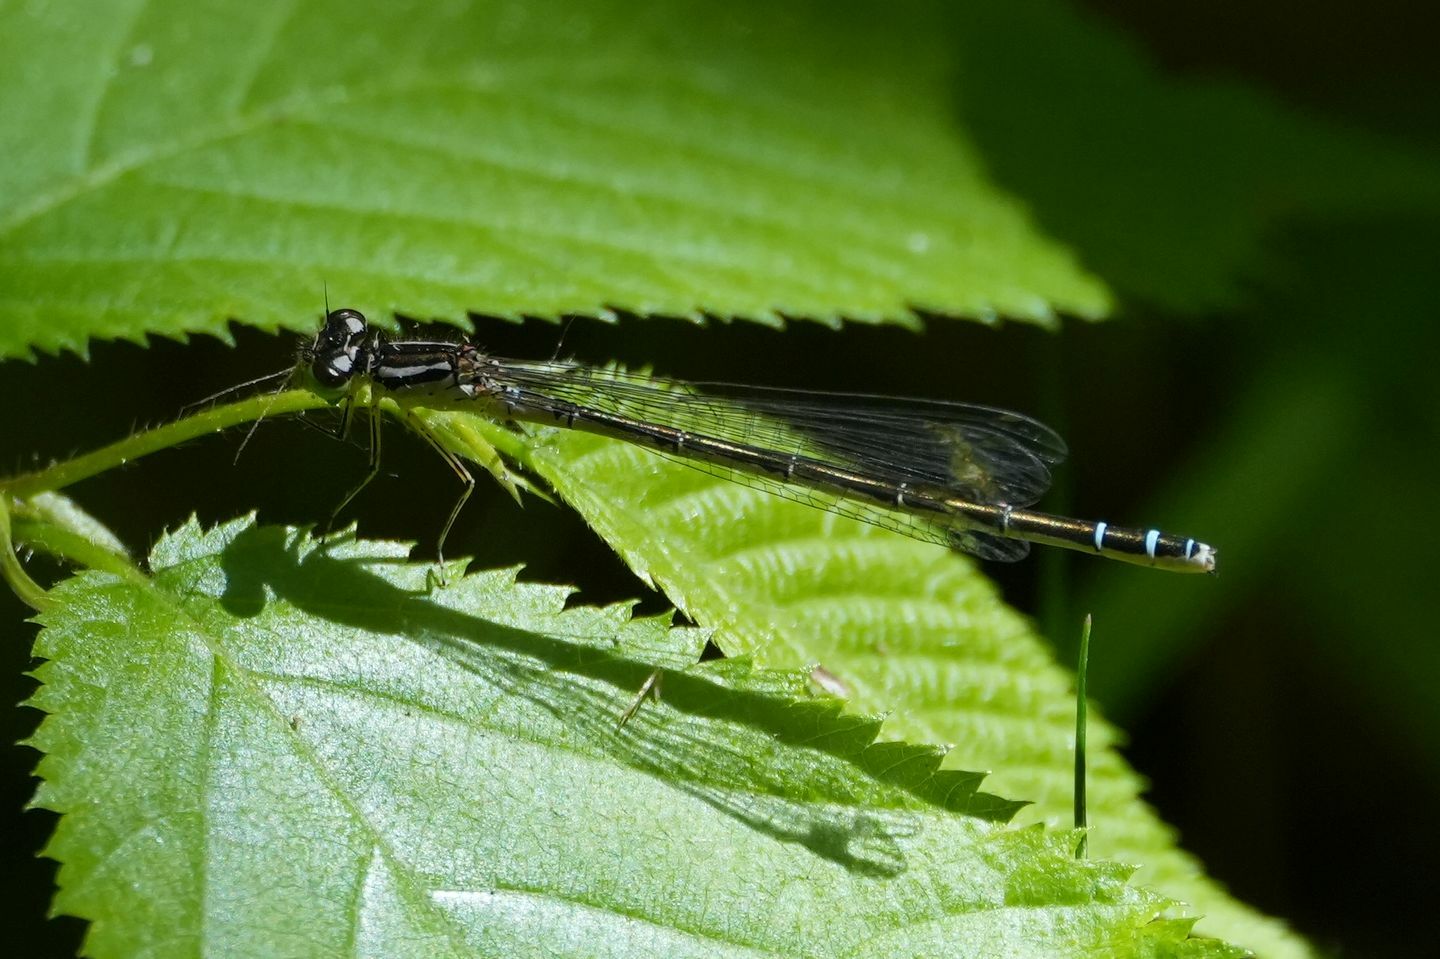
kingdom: Animalia
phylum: Arthropoda
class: Insecta
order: Odonata
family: Coenagrionidae
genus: Coenagrion
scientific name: Coenagrion resolutum
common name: Taiga bluet
